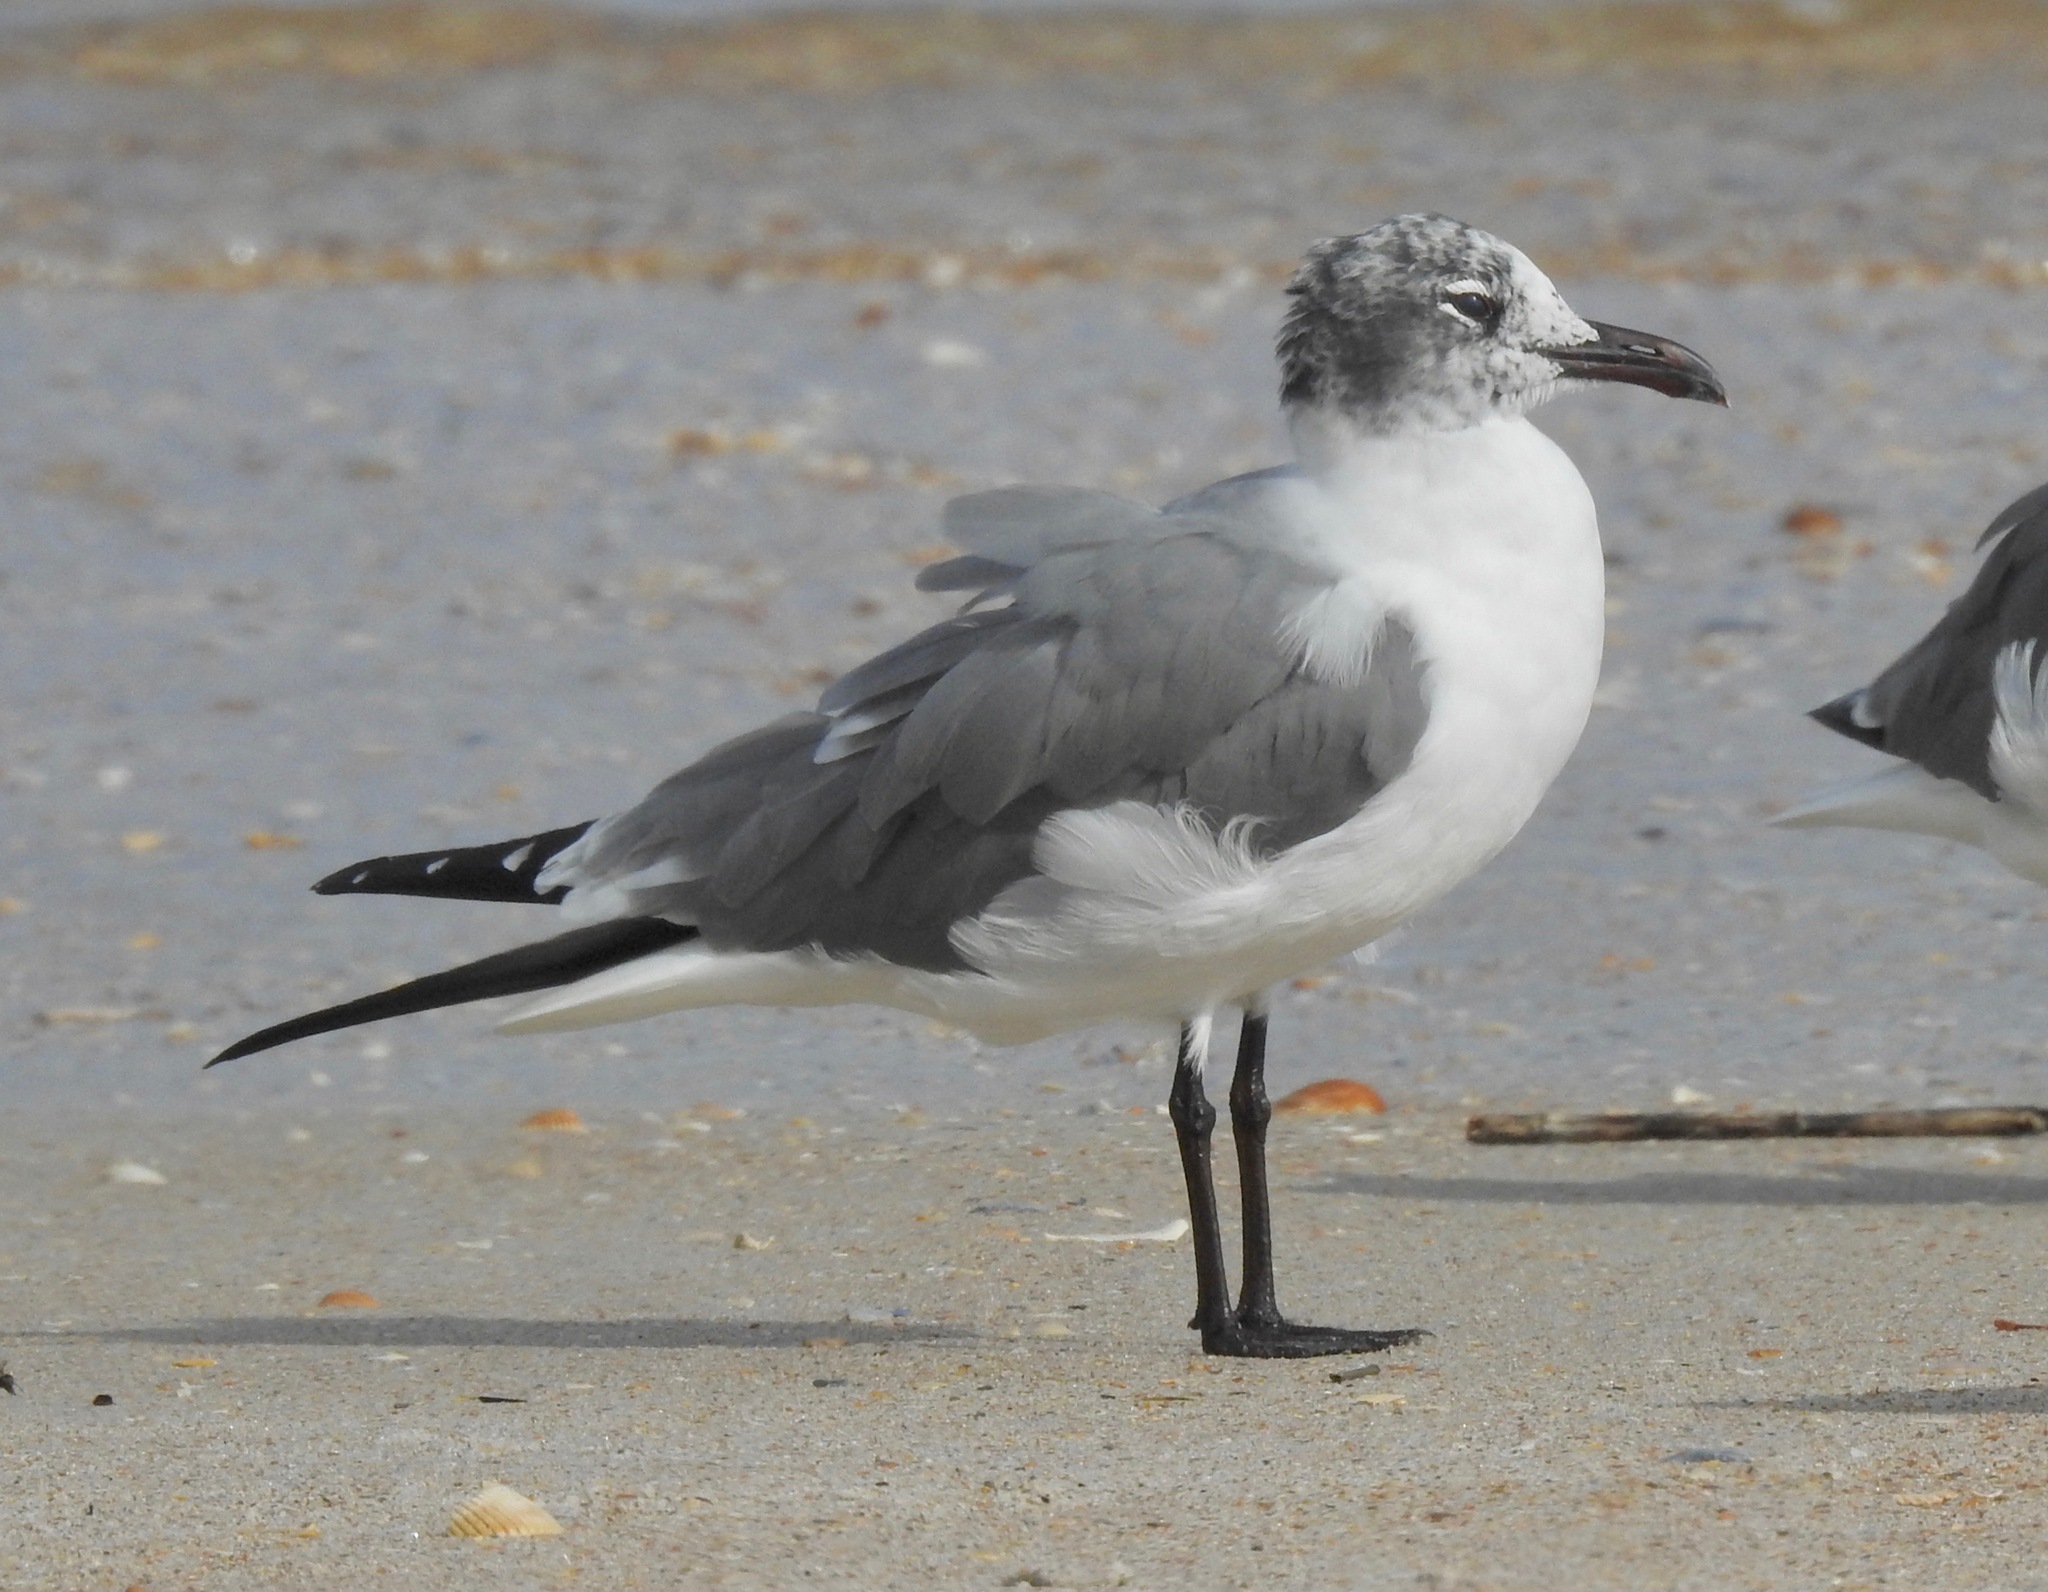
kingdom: Animalia
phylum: Chordata
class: Aves
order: Charadriiformes
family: Laridae
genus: Leucophaeus
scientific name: Leucophaeus atricilla
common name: Laughing gull
